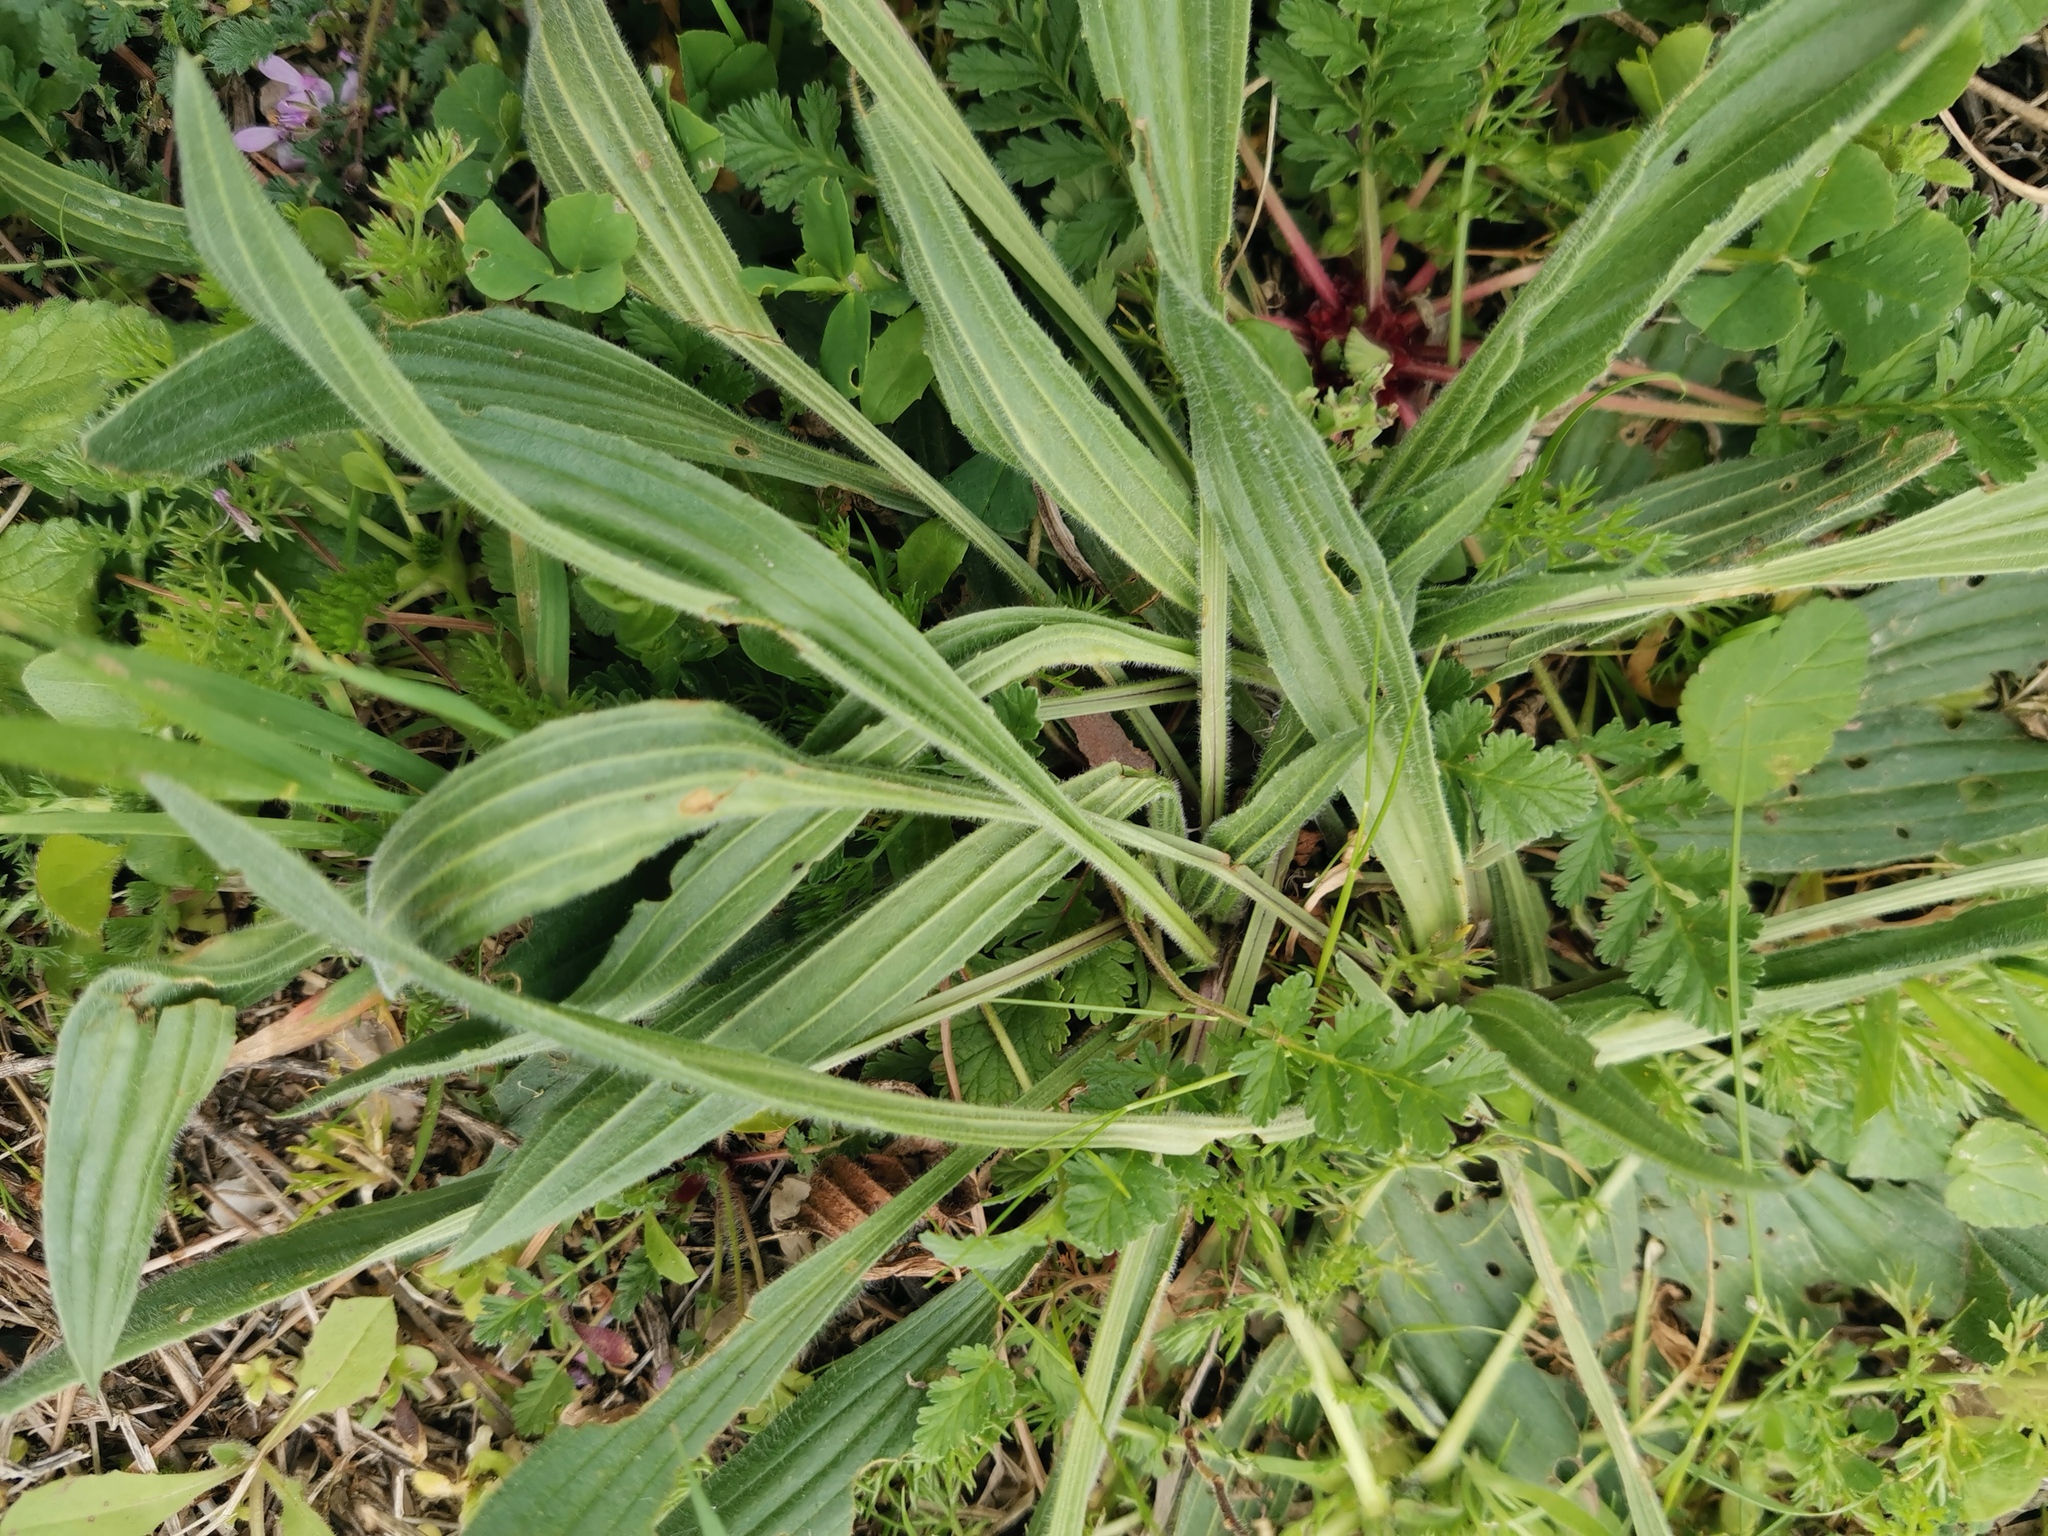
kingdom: Plantae
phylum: Tracheophyta
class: Magnoliopsida
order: Lamiales
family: Plantaginaceae
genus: Plantago
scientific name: Plantago lanceolata
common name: Ribwort plantain
